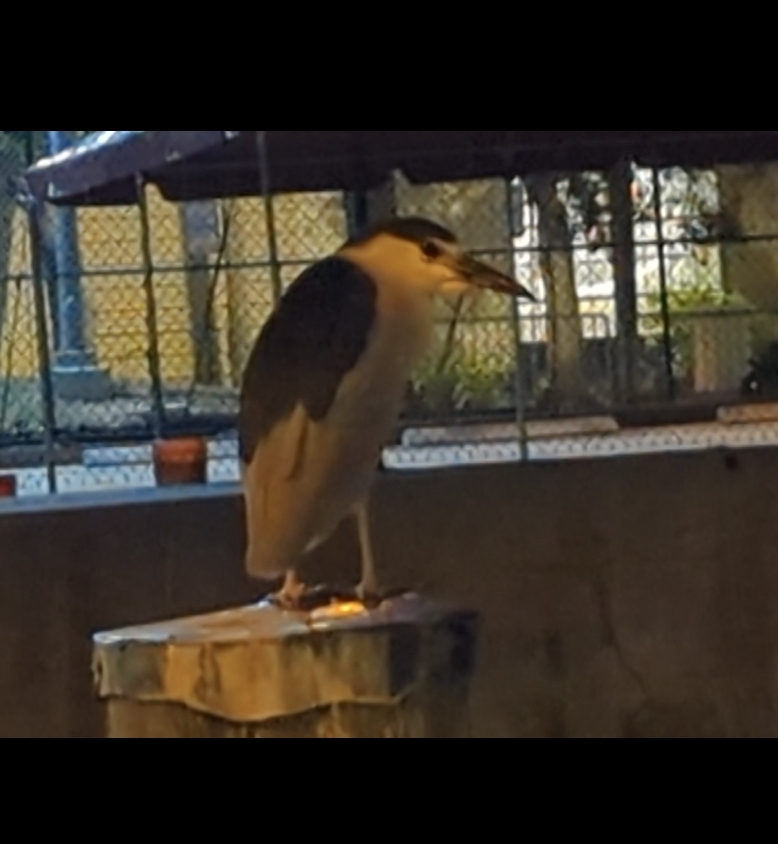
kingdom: Animalia
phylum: Chordata
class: Aves
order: Pelecaniformes
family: Ardeidae
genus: Nycticorax
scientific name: Nycticorax nycticorax
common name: Black-crowned night heron
